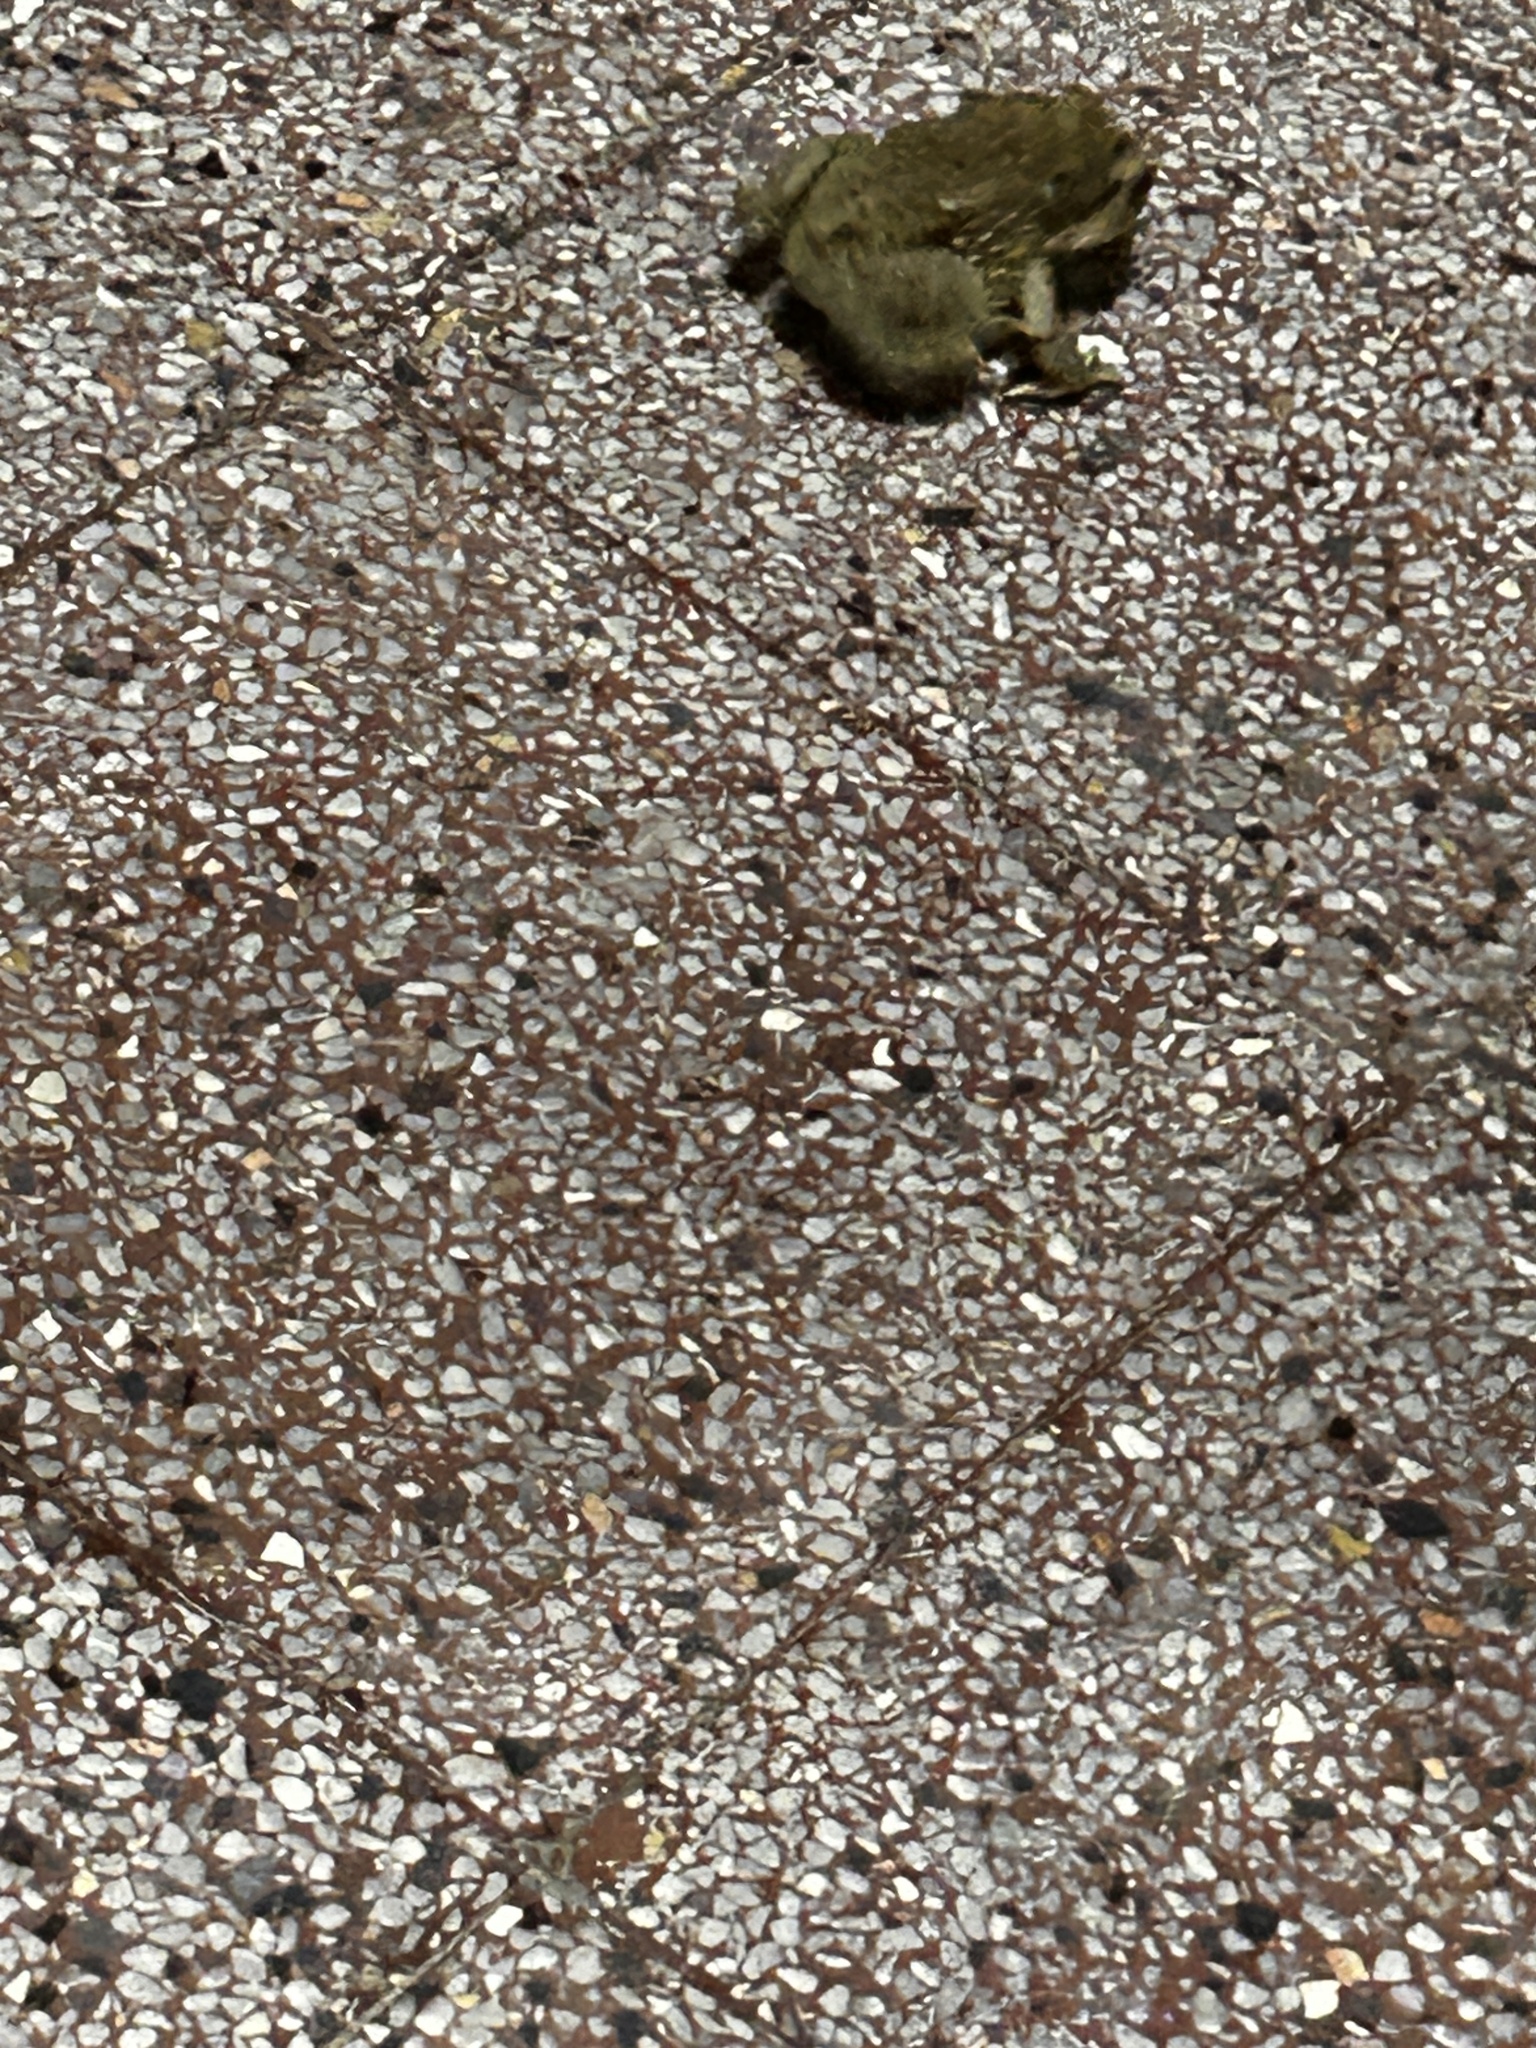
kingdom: Animalia
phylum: Chordata
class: Amphibia
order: Anura
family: Bufonidae
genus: Duttaphrynus
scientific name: Duttaphrynus melanostictus
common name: Common sunda toad
